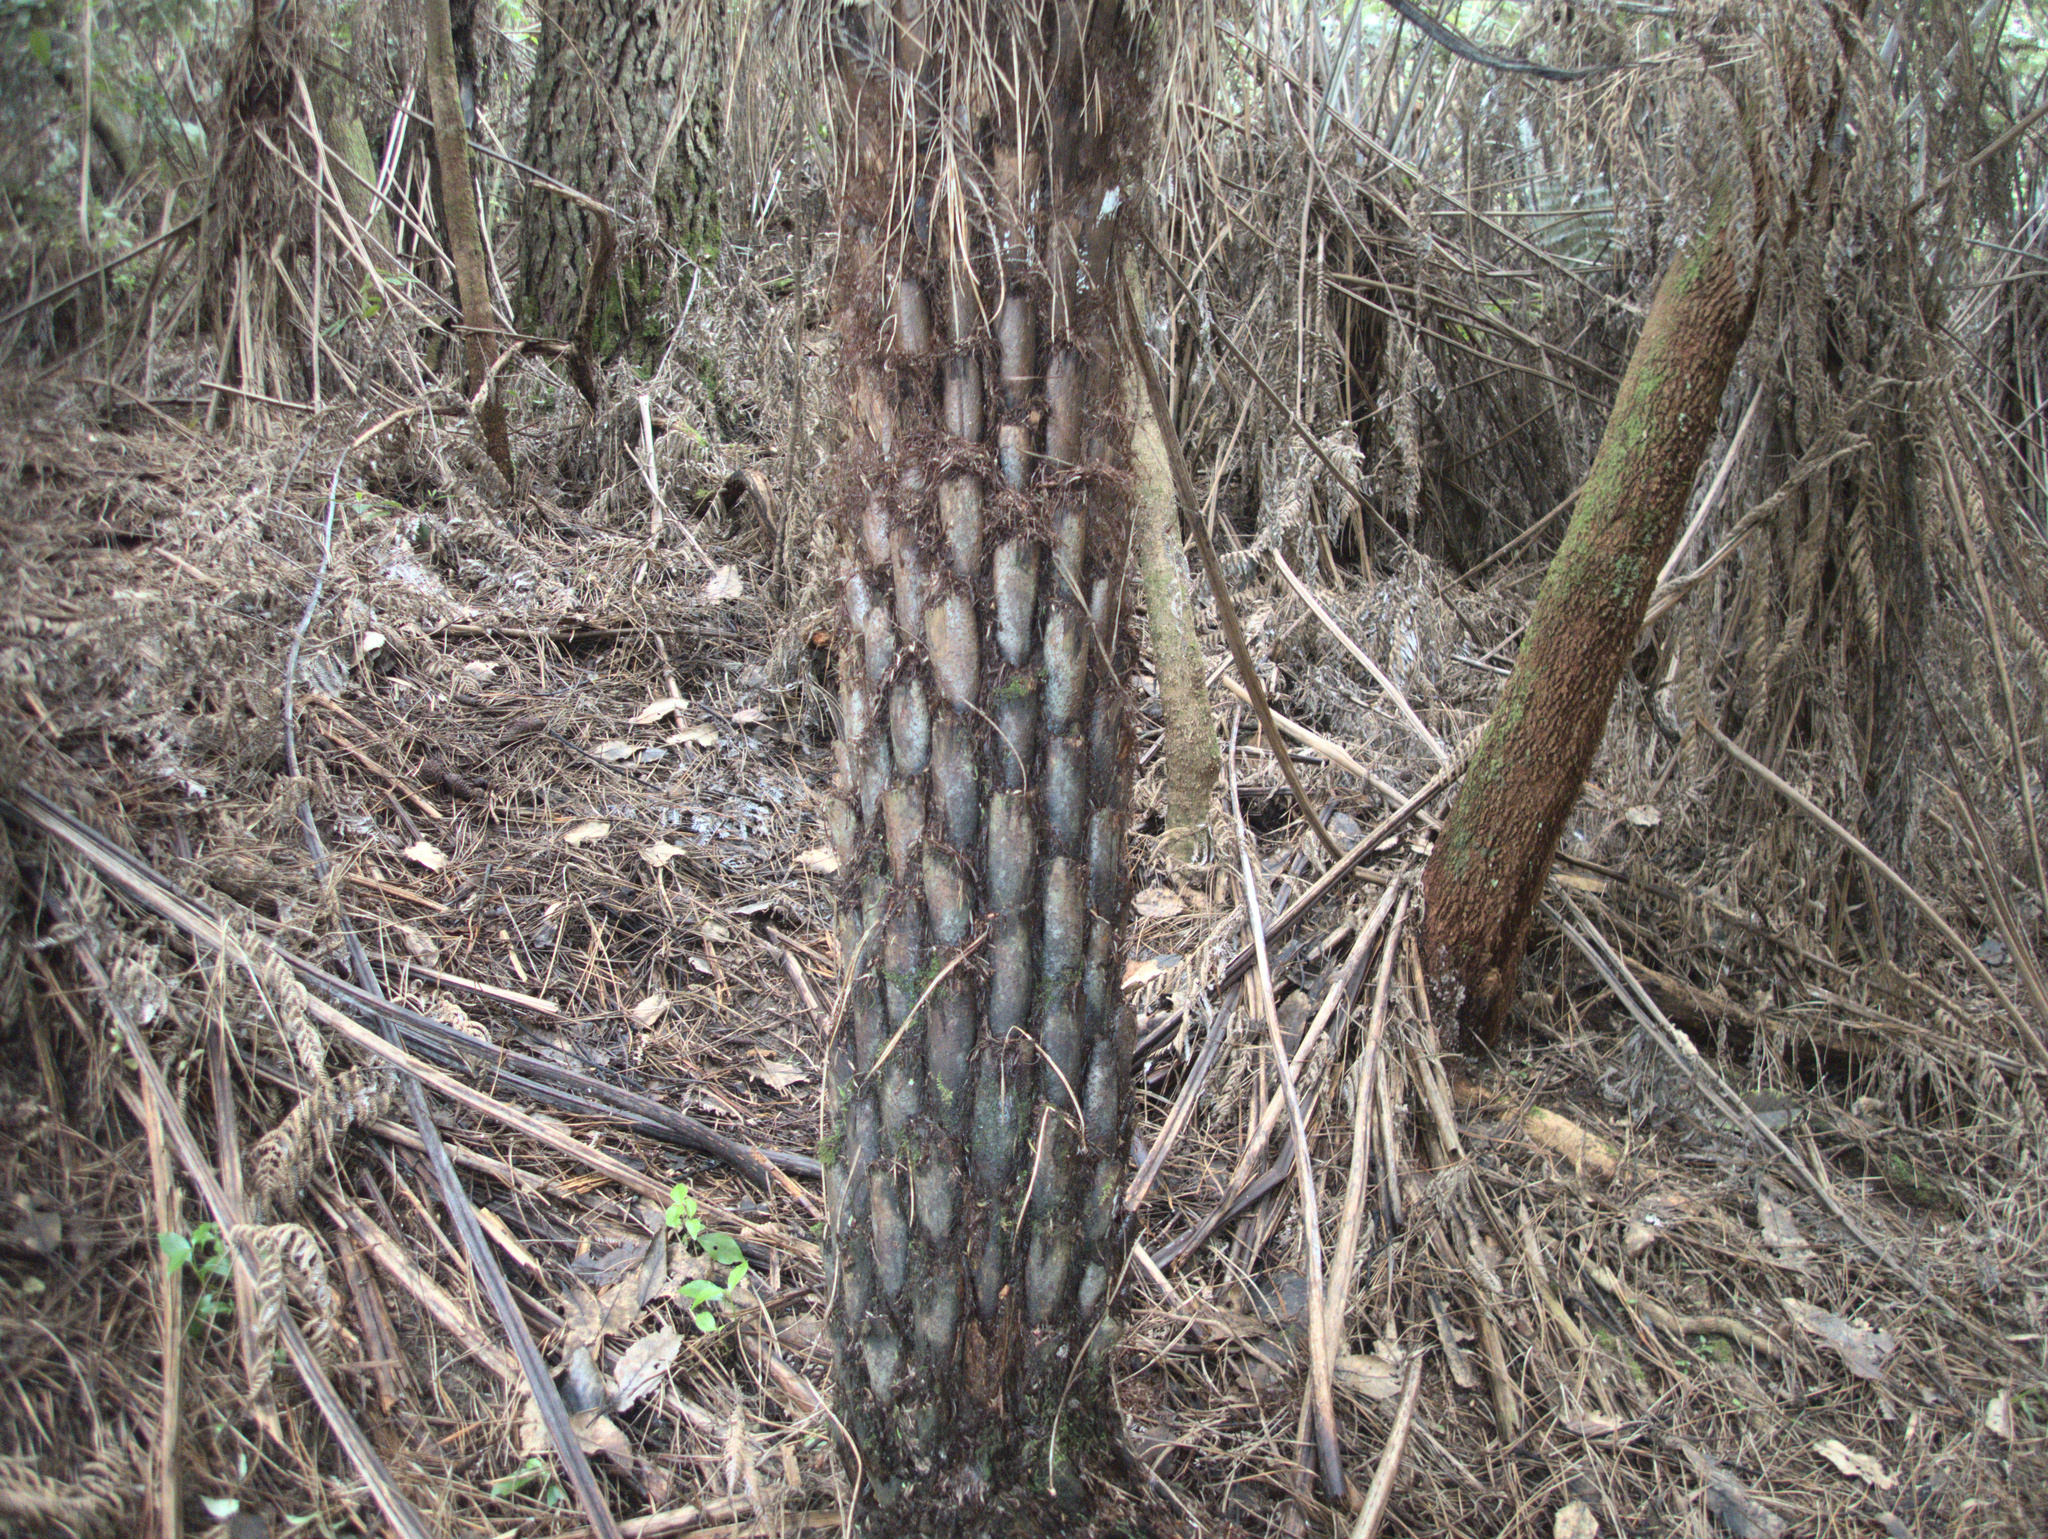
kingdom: Plantae
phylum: Tracheophyta
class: Polypodiopsida
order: Cyatheales
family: Cyatheaceae
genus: Alsophila
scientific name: Alsophila dealbata
